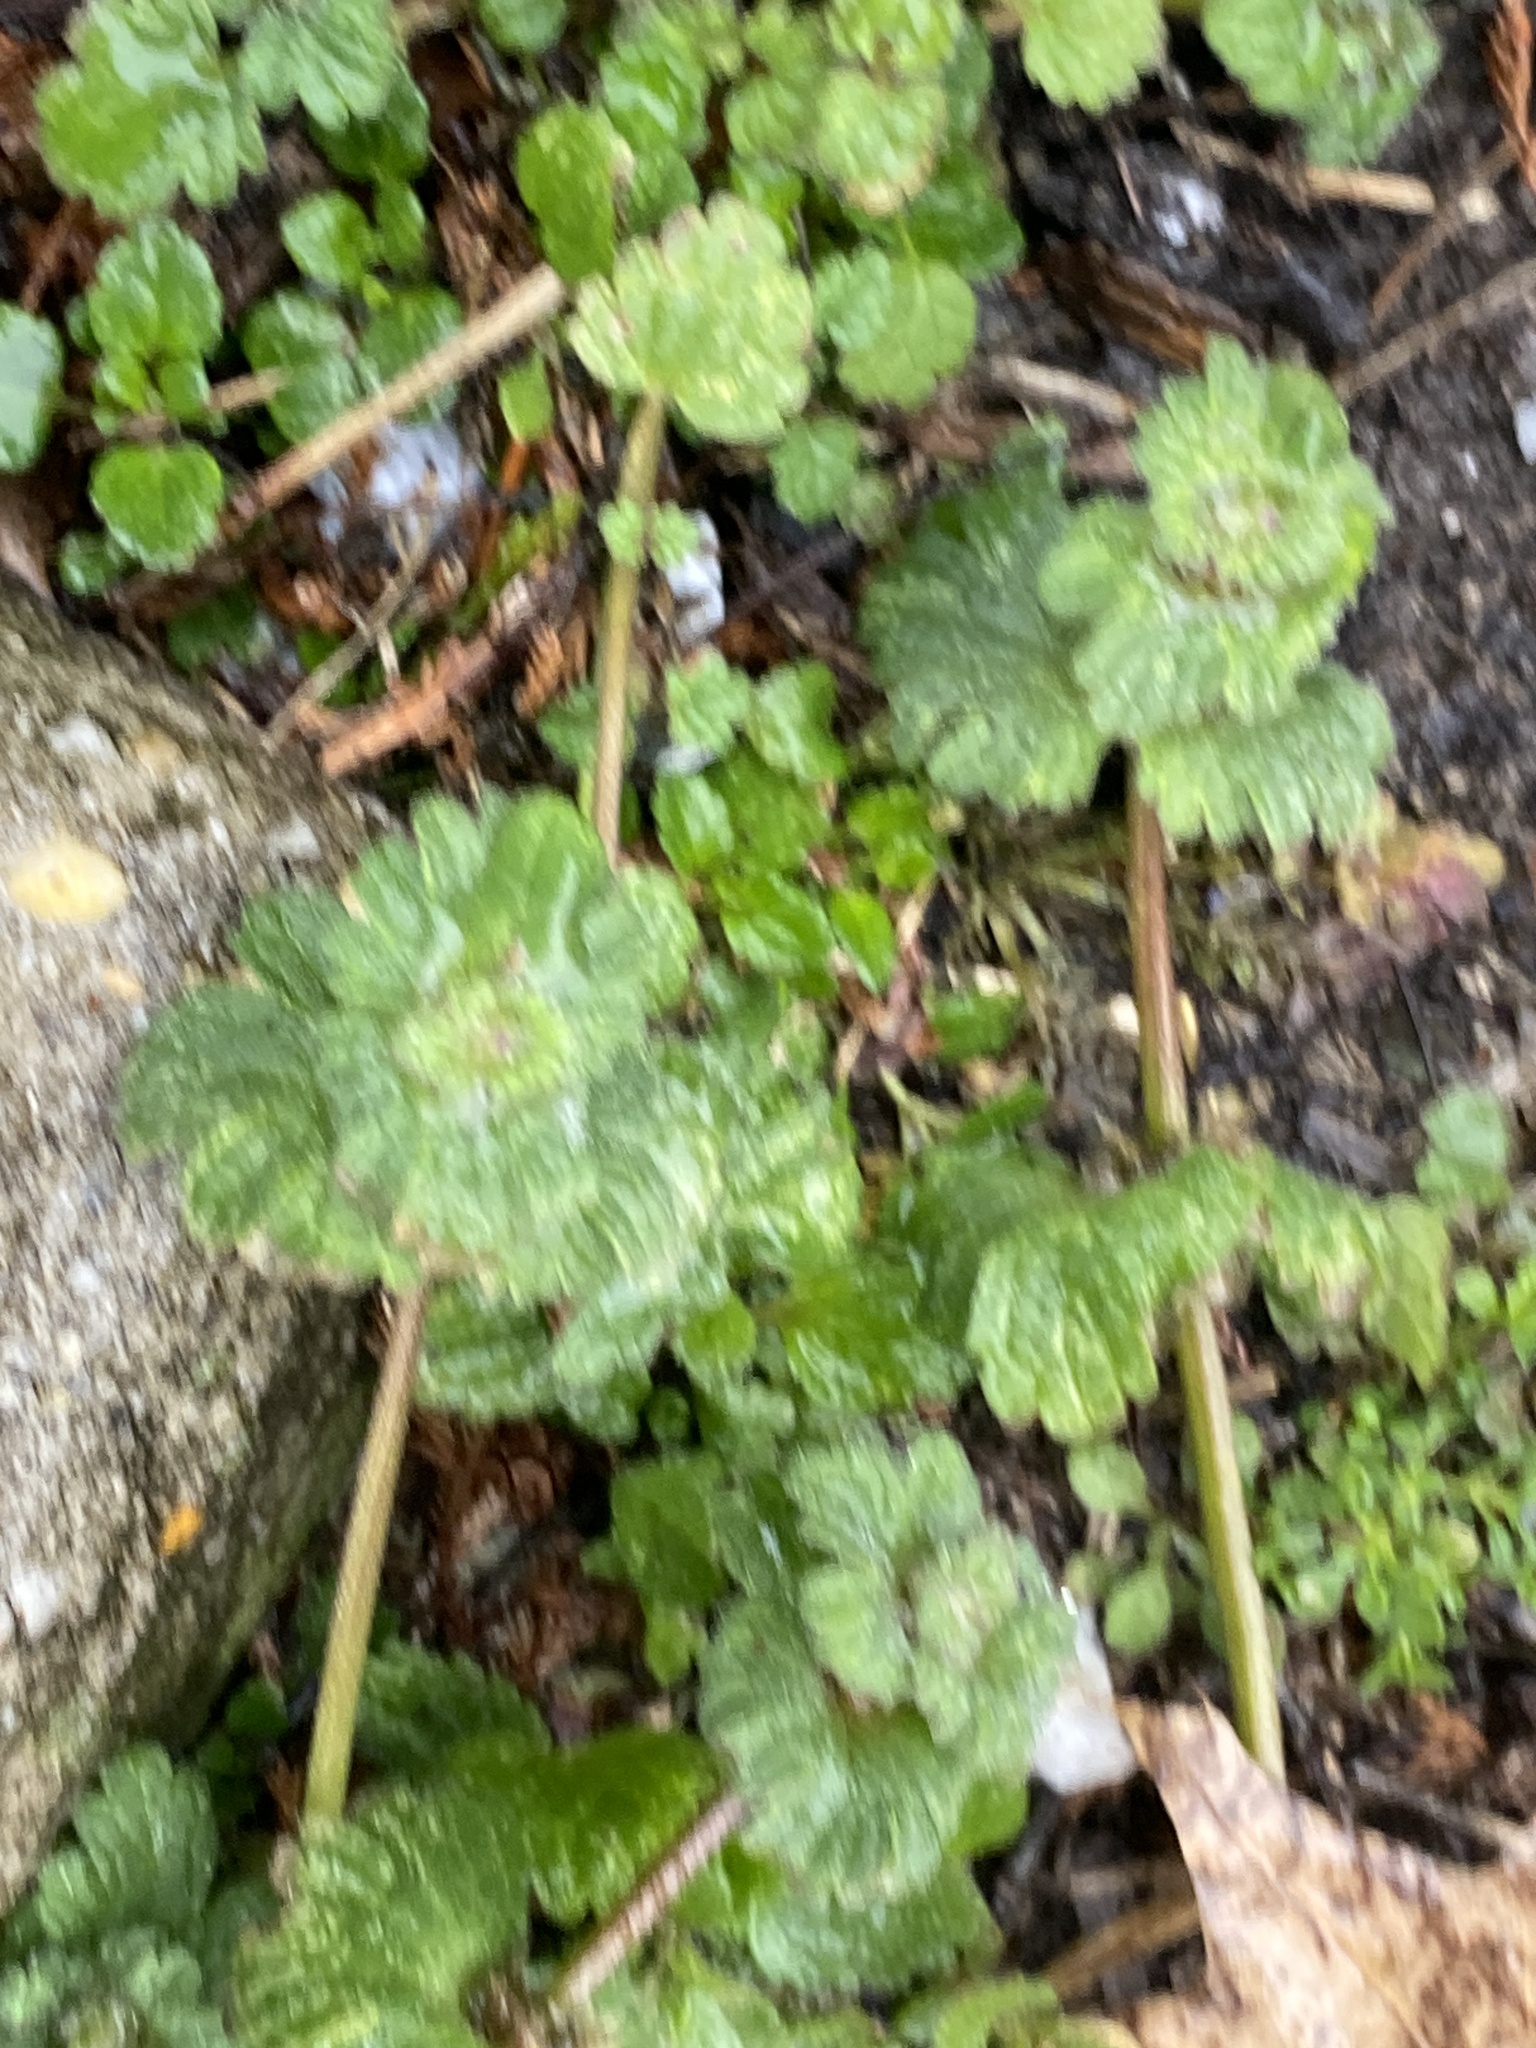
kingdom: Plantae
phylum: Tracheophyta
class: Magnoliopsida
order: Lamiales
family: Lamiaceae
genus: Lamium
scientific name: Lamium amplexicaule
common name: Henbit dead-nettle
